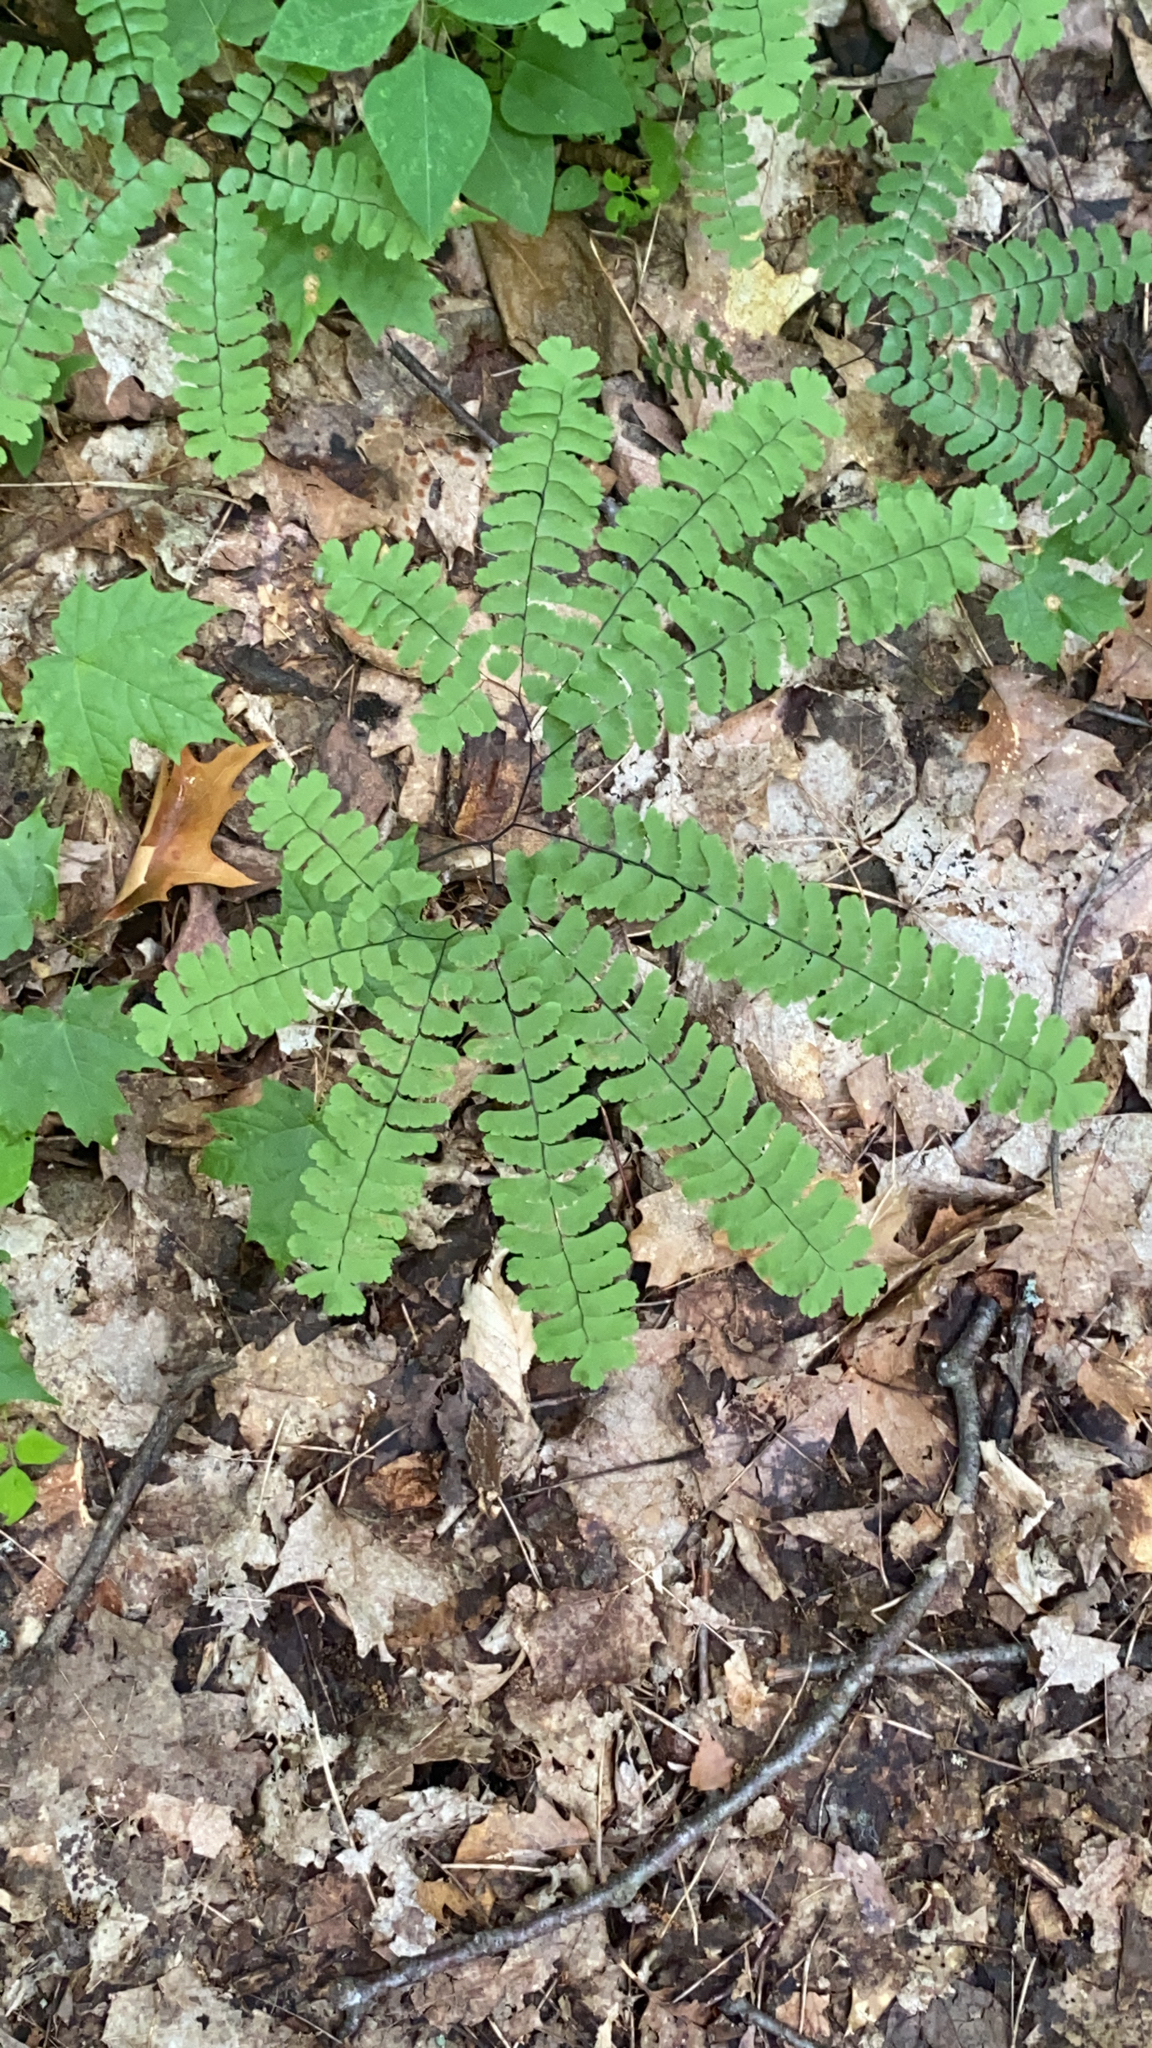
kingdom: Plantae
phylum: Tracheophyta
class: Polypodiopsida
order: Polypodiales
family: Pteridaceae
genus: Adiantum
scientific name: Adiantum pedatum
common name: Five-finger fern
